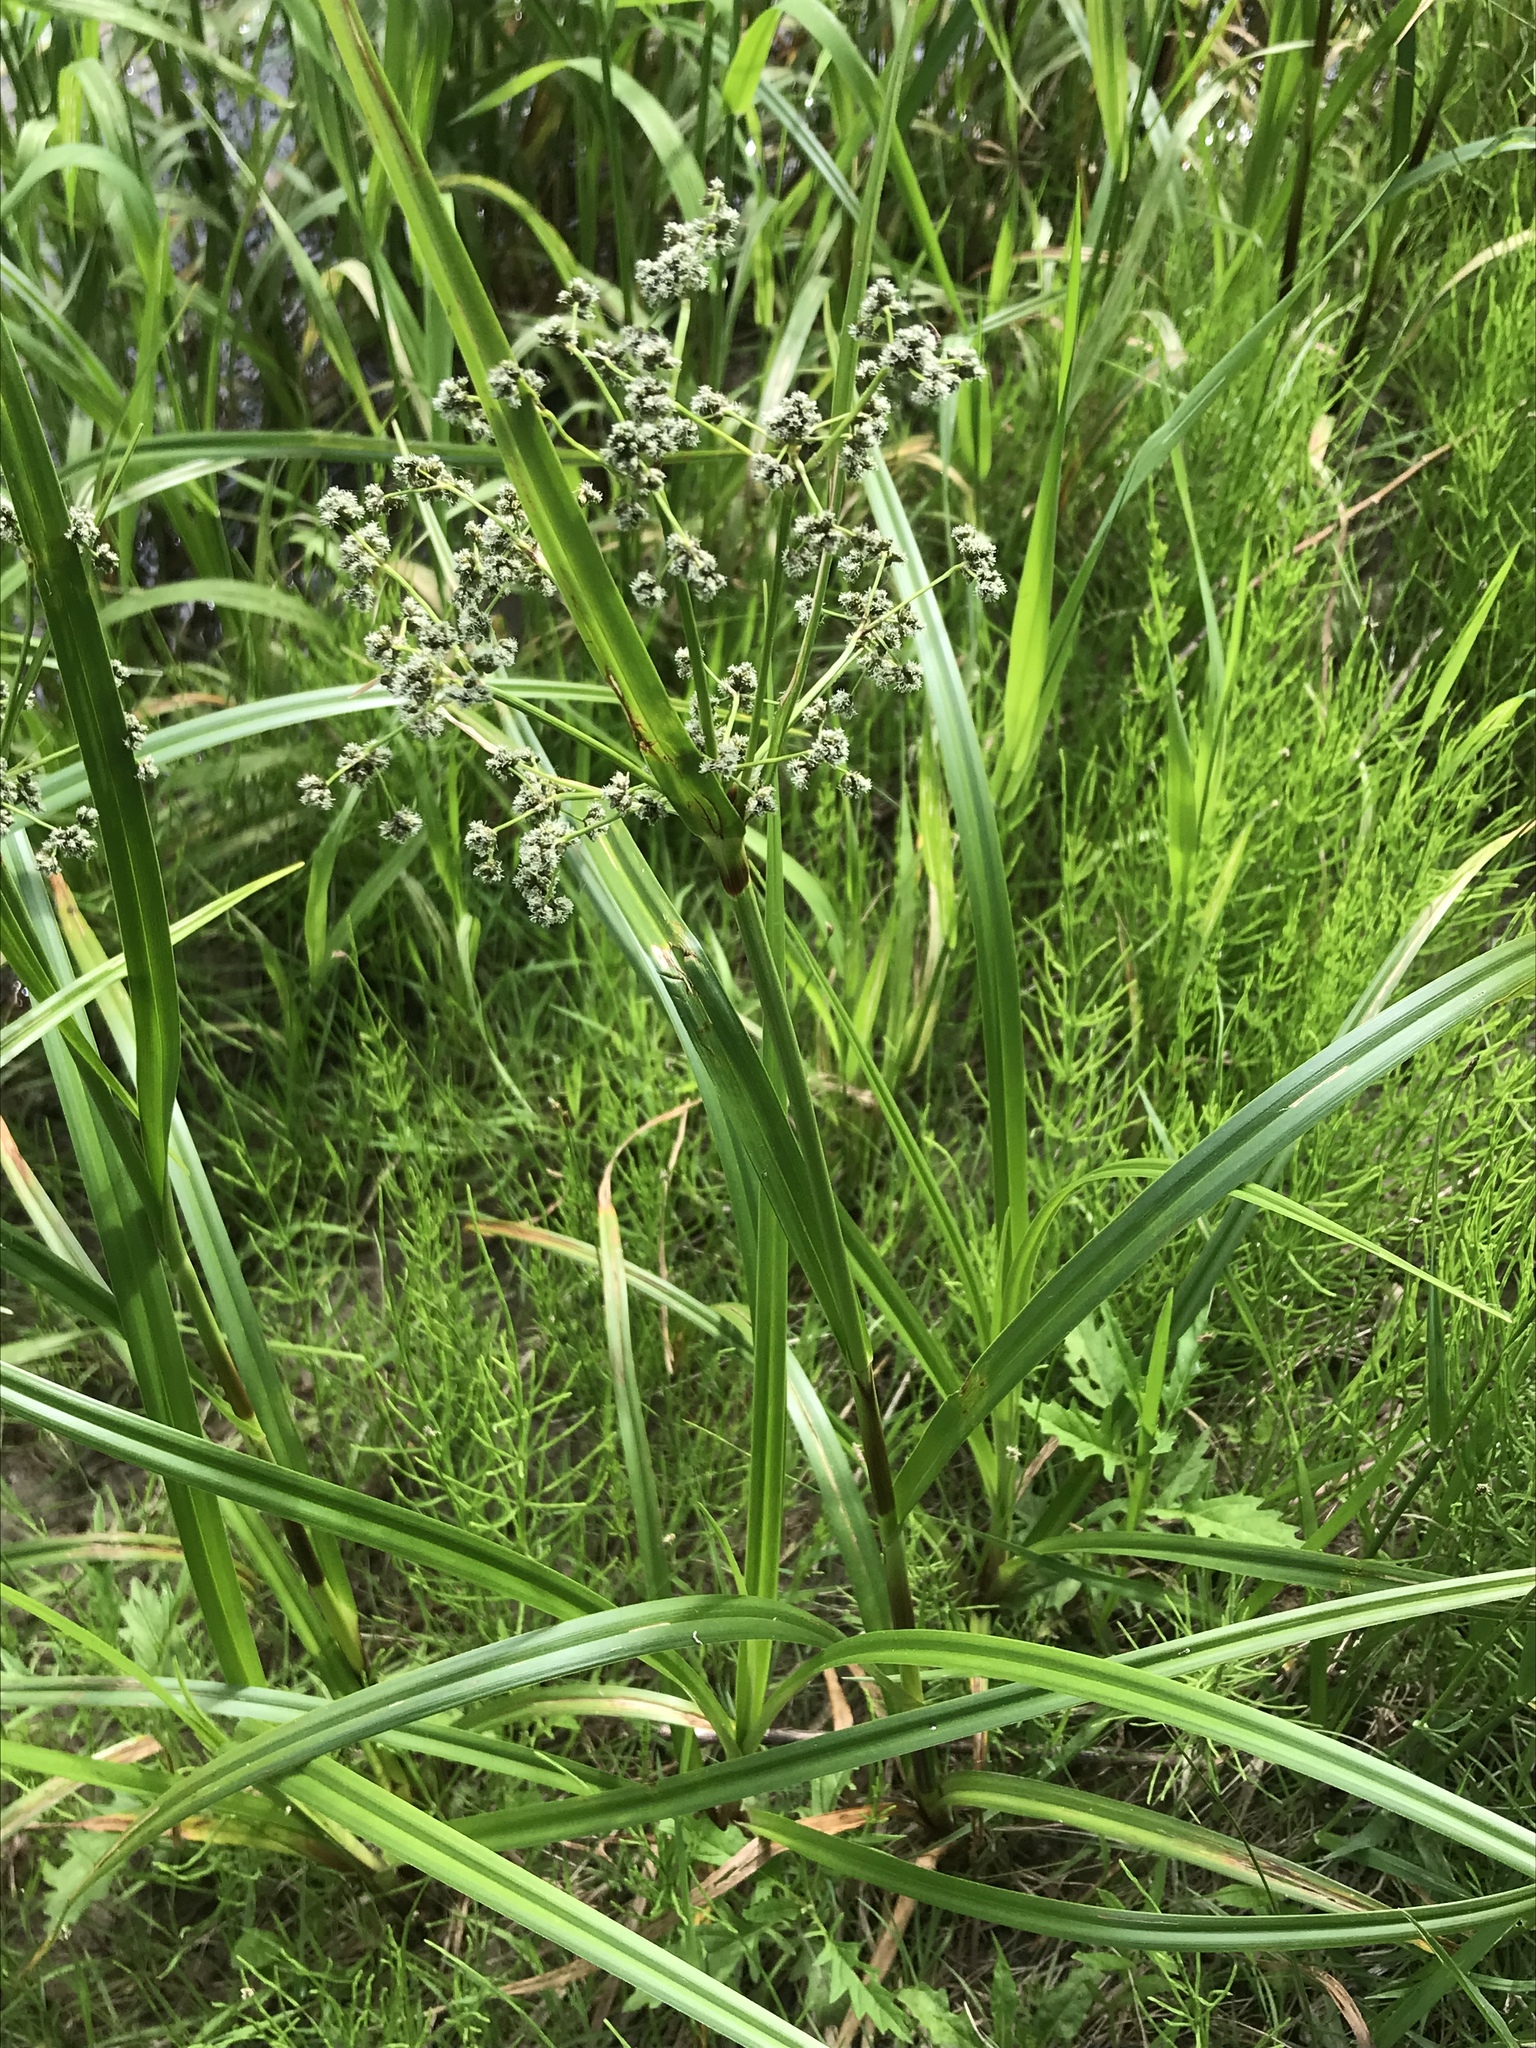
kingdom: Plantae
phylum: Tracheophyta
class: Liliopsida
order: Poales
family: Cyperaceae
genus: Scirpus
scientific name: Scirpus atrovirens
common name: Black bulrush
